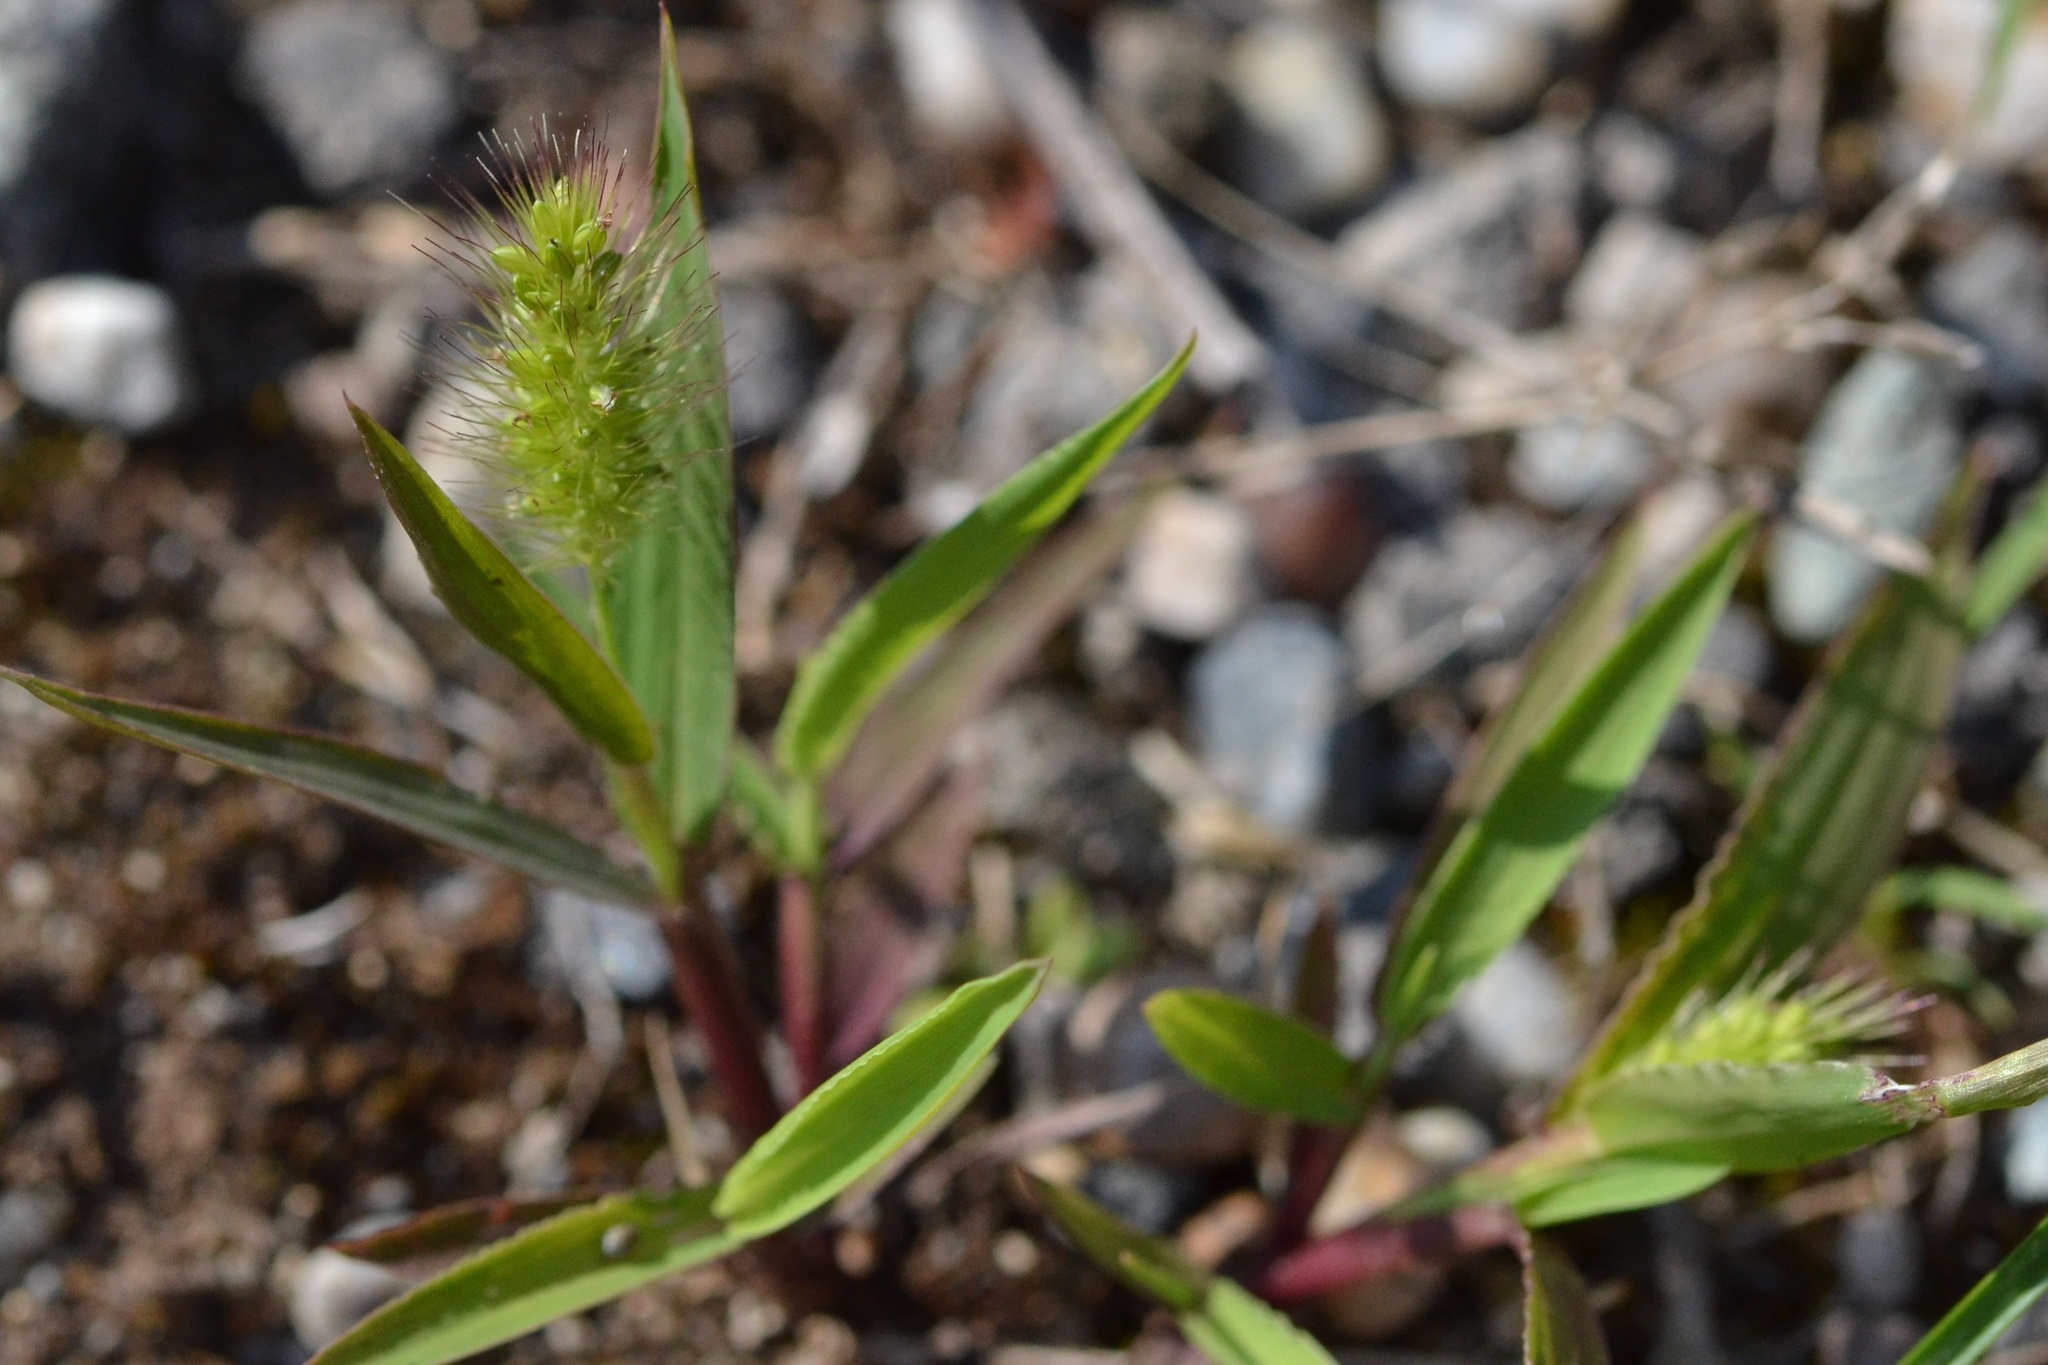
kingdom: Plantae
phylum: Tracheophyta
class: Liliopsida
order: Poales
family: Poaceae
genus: Setaria
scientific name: Setaria viridis
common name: Green bristlegrass
